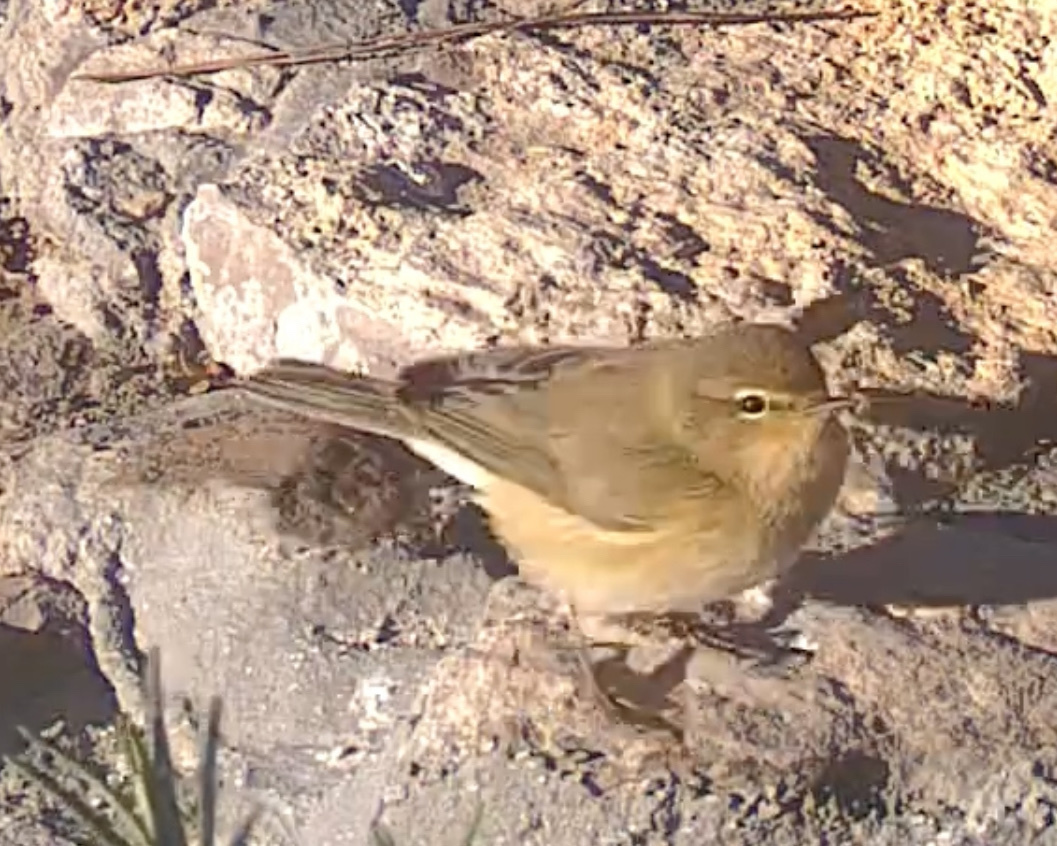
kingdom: Animalia
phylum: Chordata
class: Aves
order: Passeriformes
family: Phylloscopidae
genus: Phylloscopus
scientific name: Phylloscopus collybita
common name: Common chiffchaff
